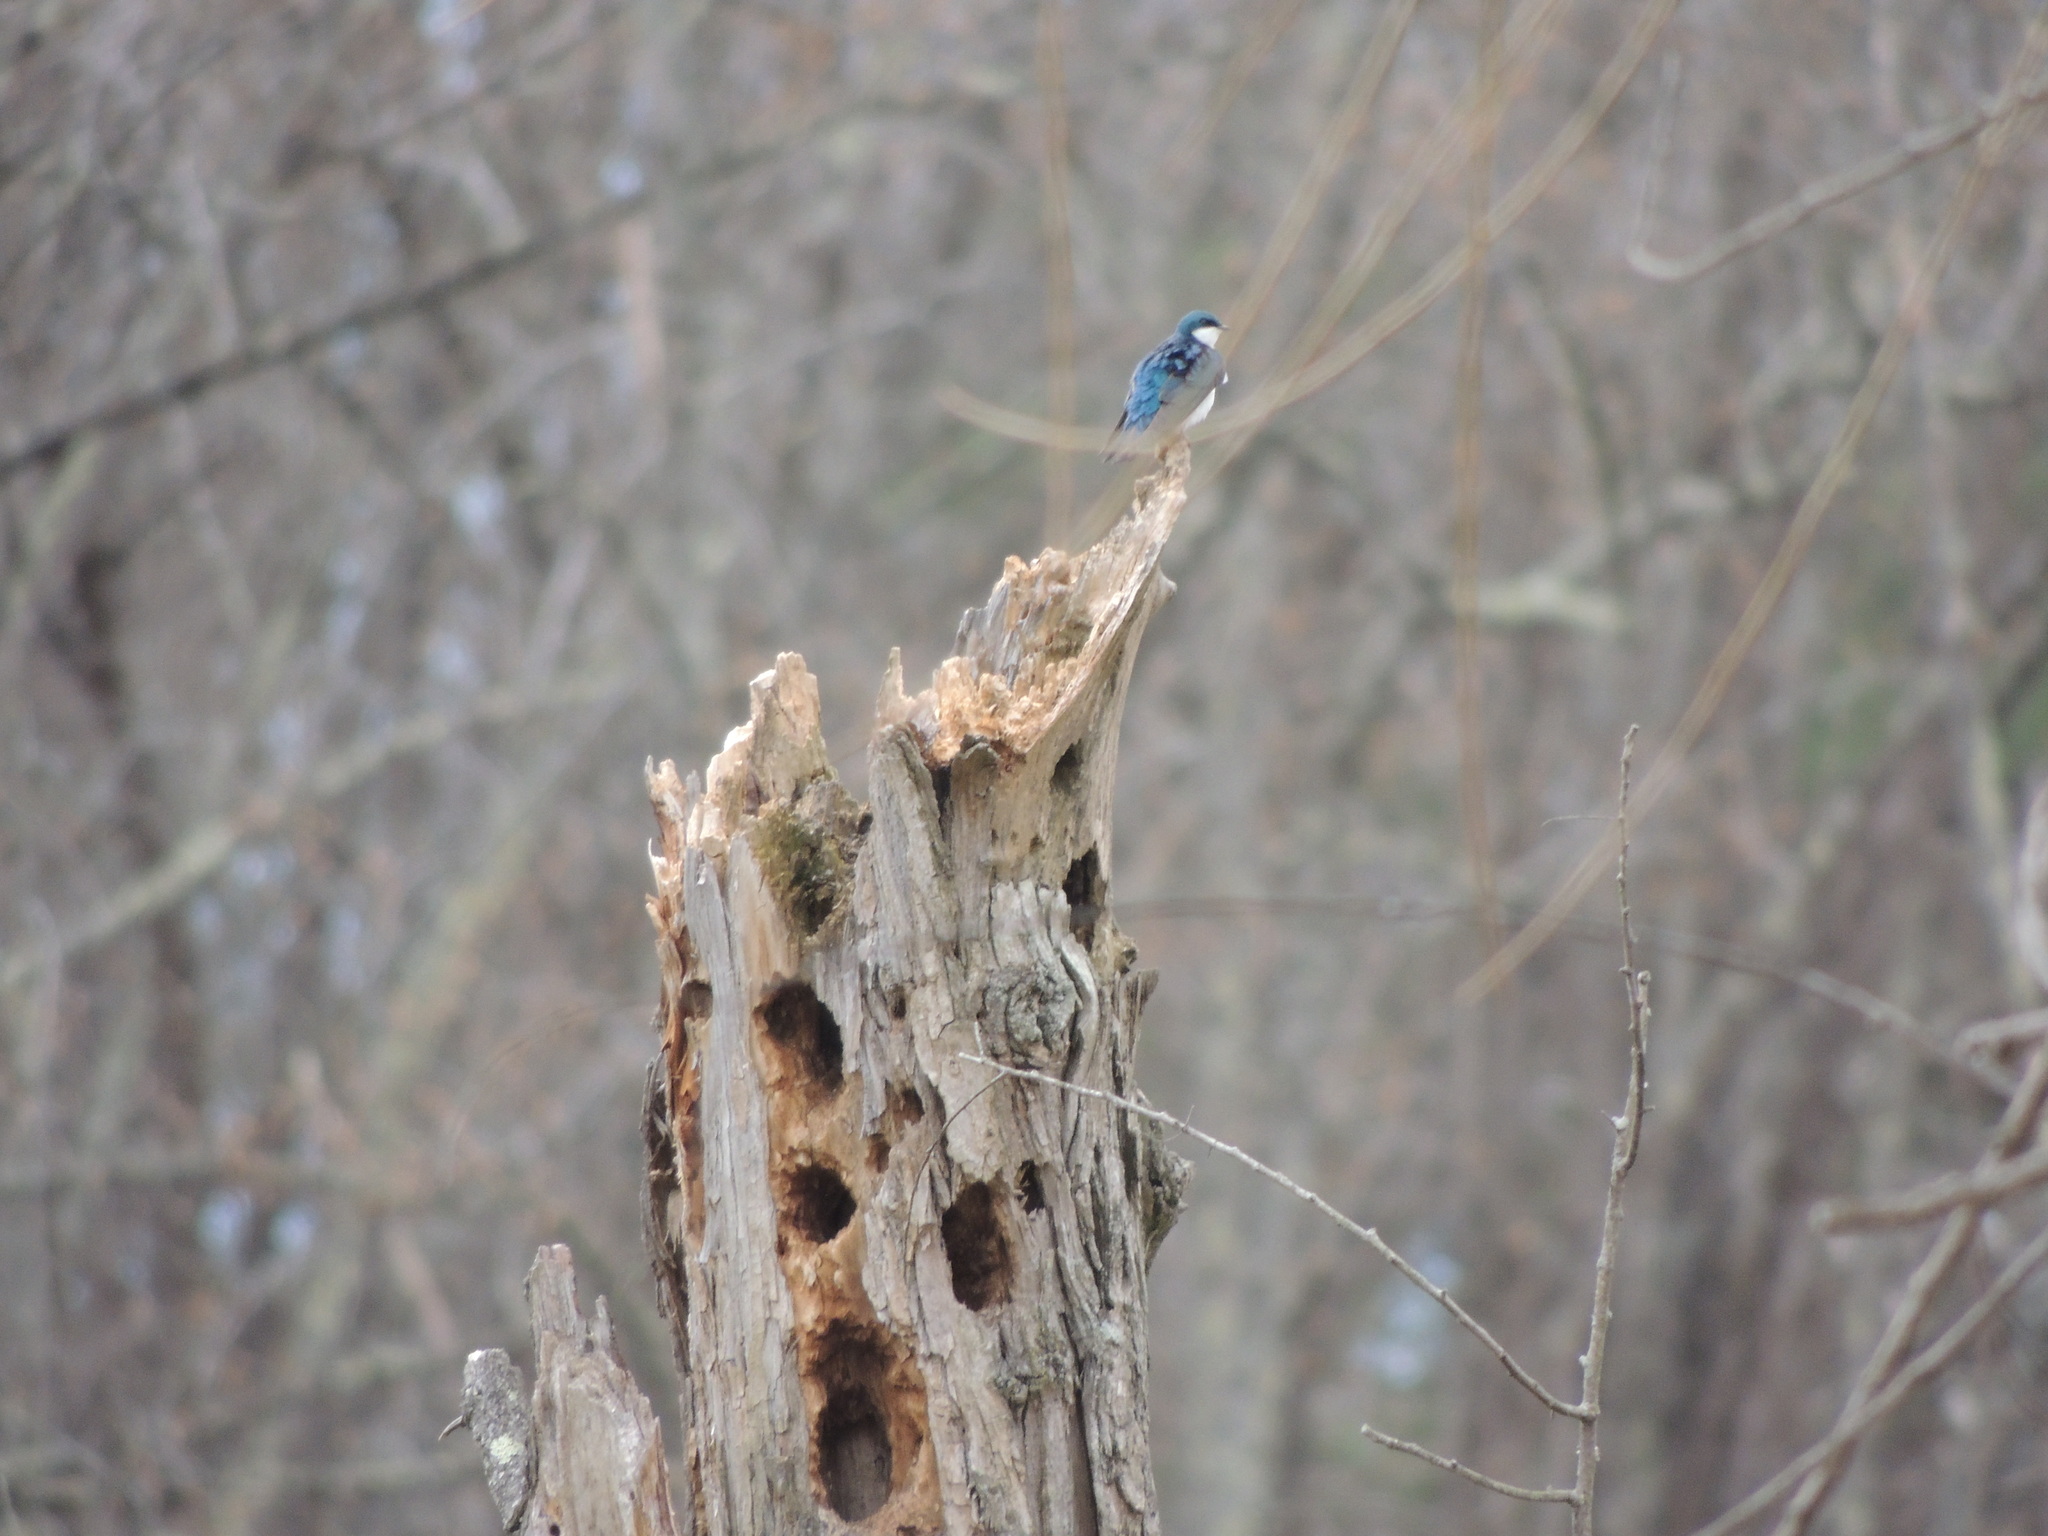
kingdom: Animalia
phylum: Chordata
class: Aves
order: Passeriformes
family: Hirundinidae
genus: Tachycineta
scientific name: Tachycineta bicolor
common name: Tree swallow
